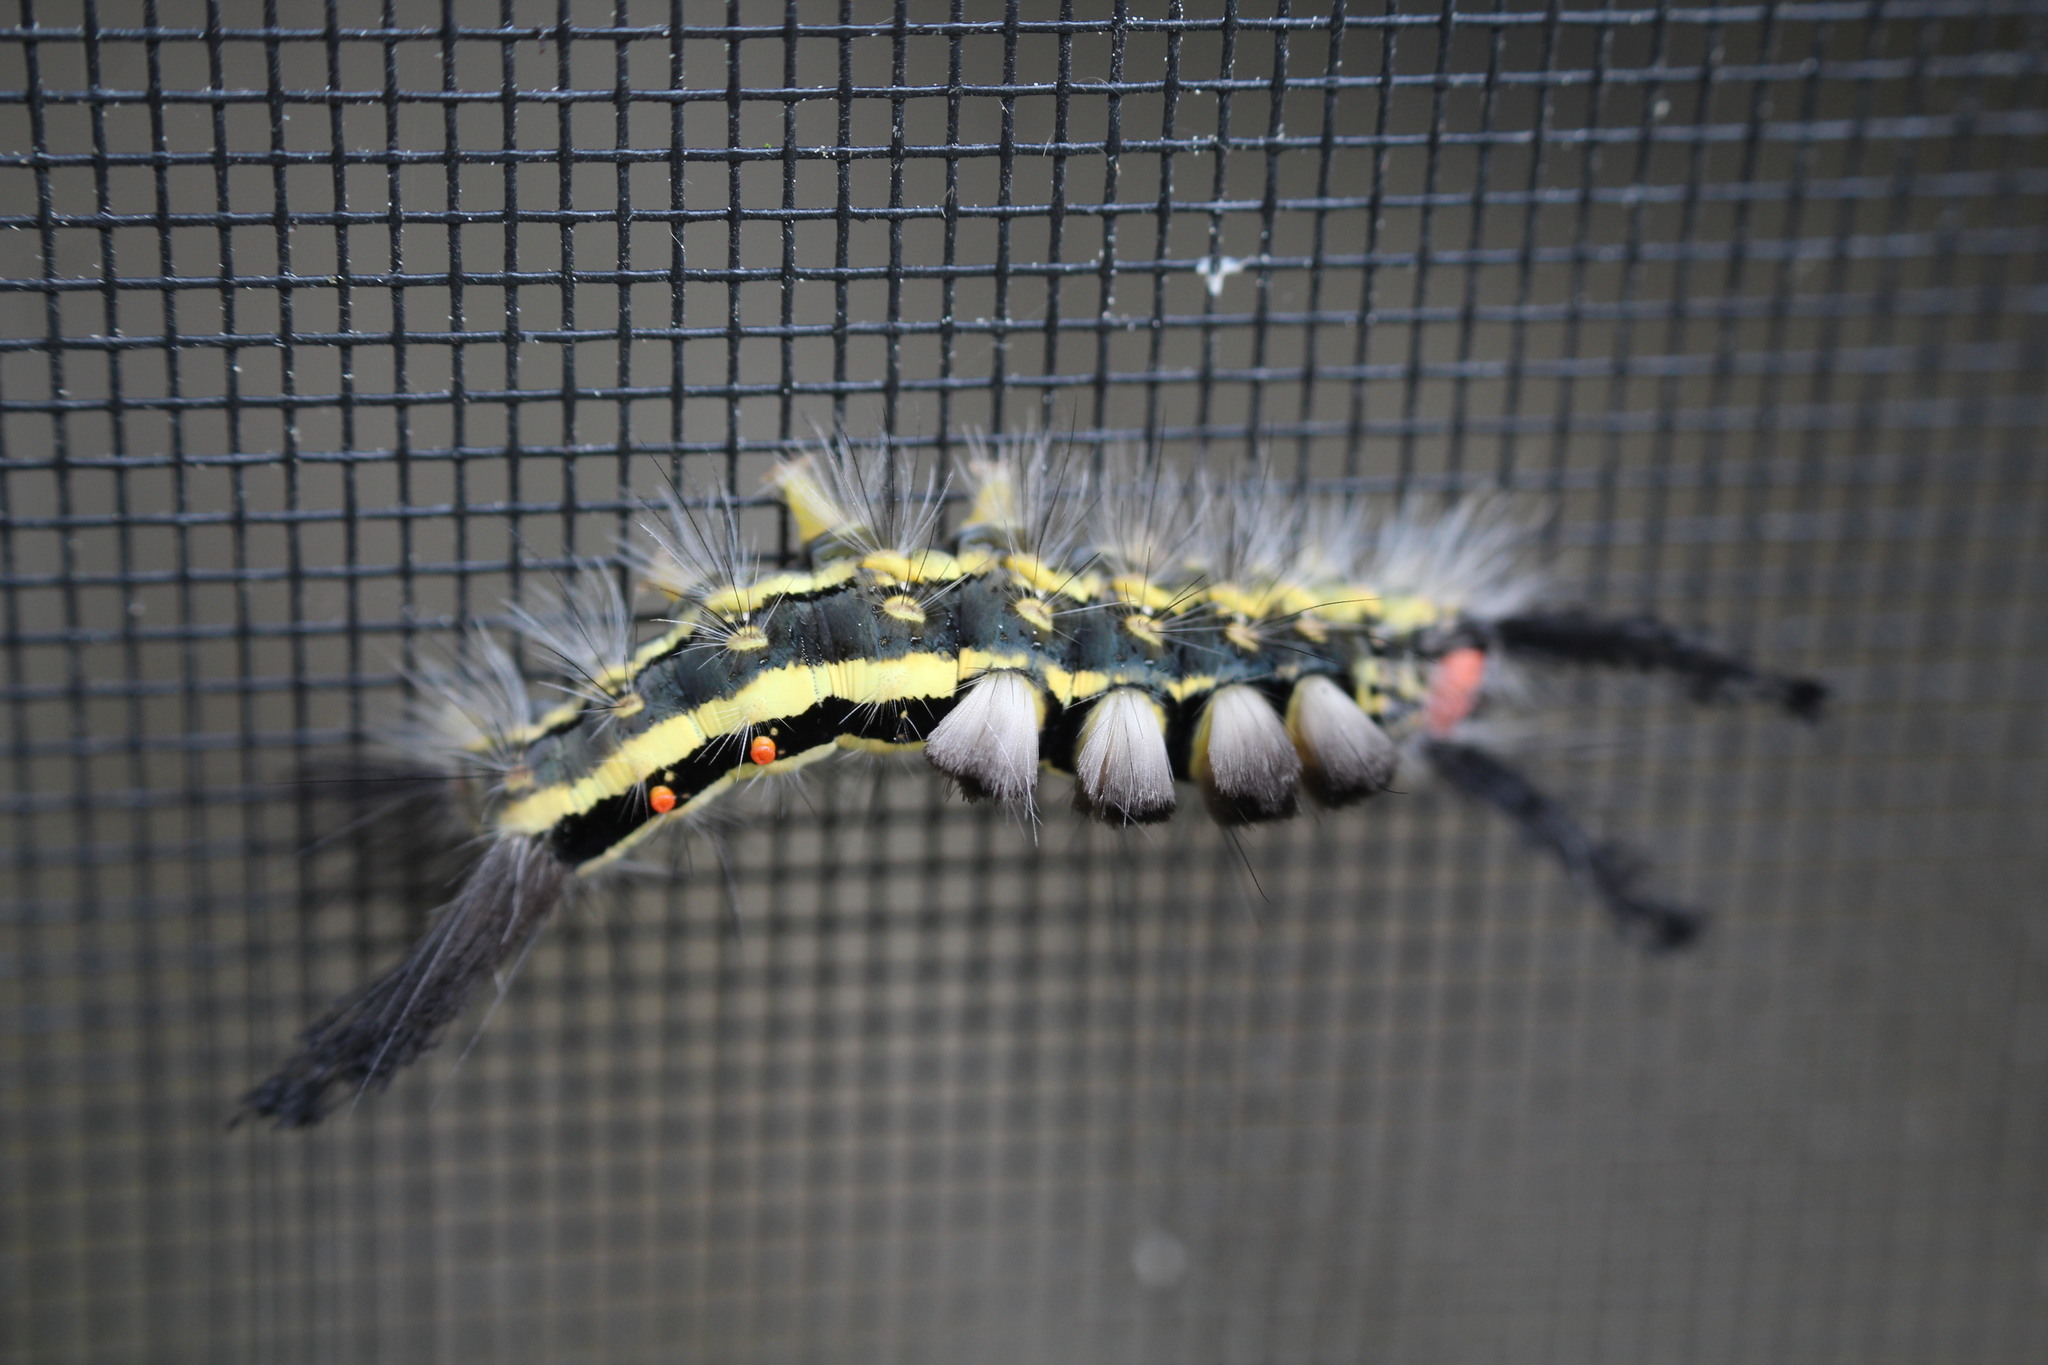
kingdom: Animalia
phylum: Arthropoda
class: Insecta
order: Lepidoptera
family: Erebidae
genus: Orgyia
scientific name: Orgyia leucostigma
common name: White-marked tussock moth
